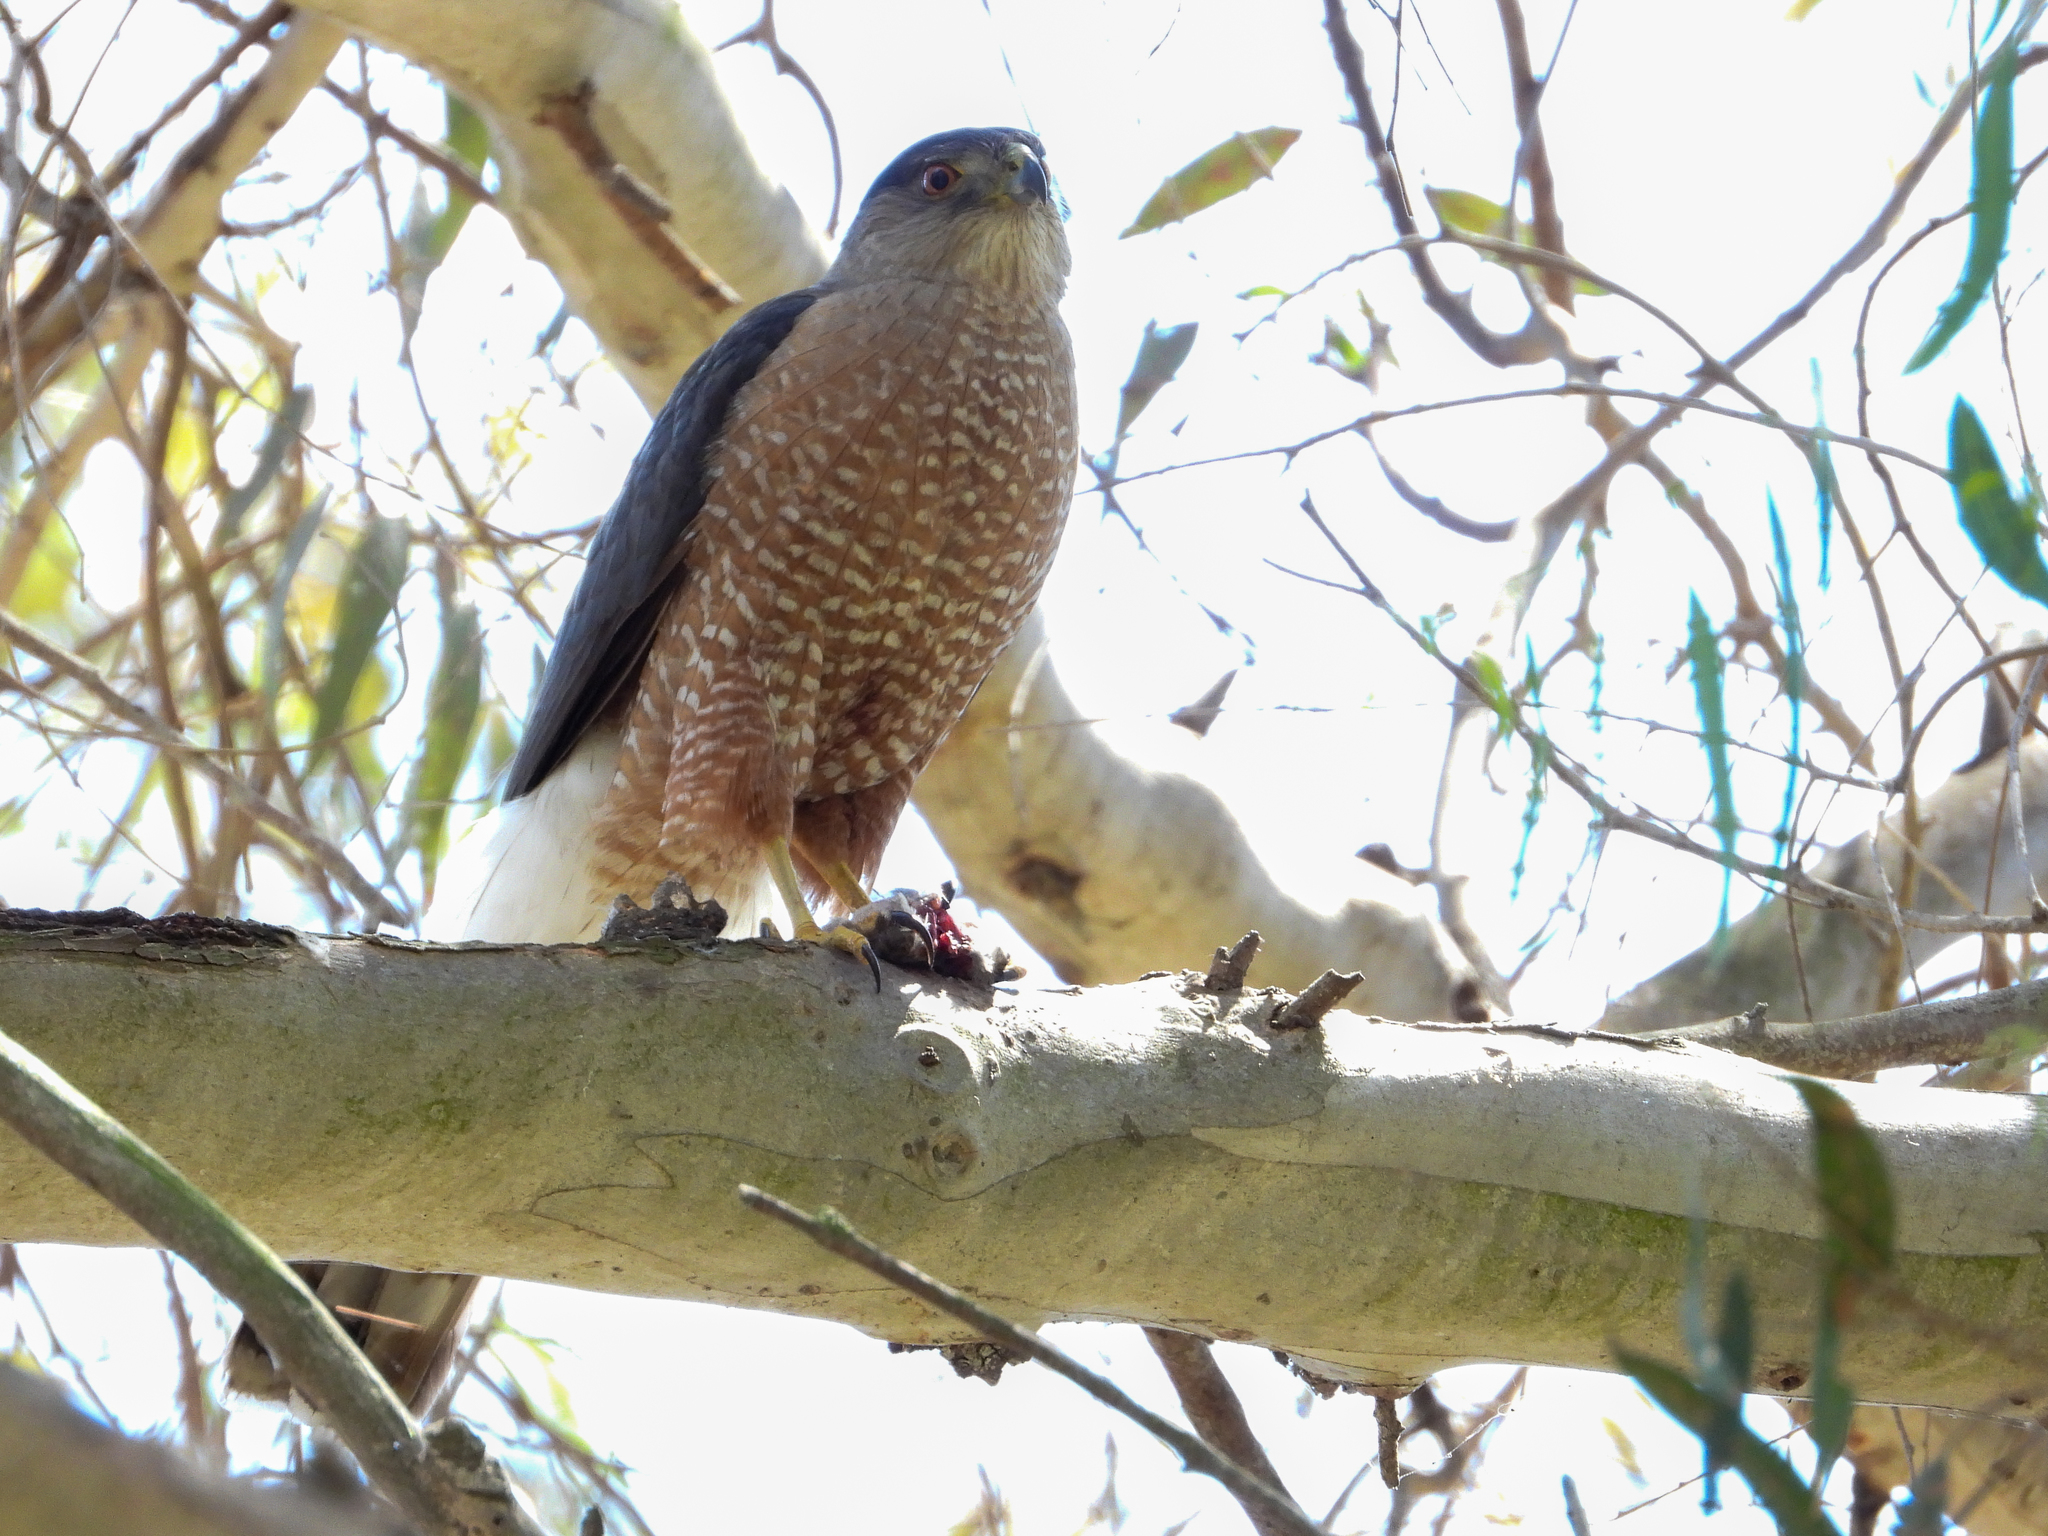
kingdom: Animalia
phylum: Chordata
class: Aves
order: Accipitriformes
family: Accipitridae
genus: Accipiter
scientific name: Accipiter cooperii
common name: Cooper's hawk
